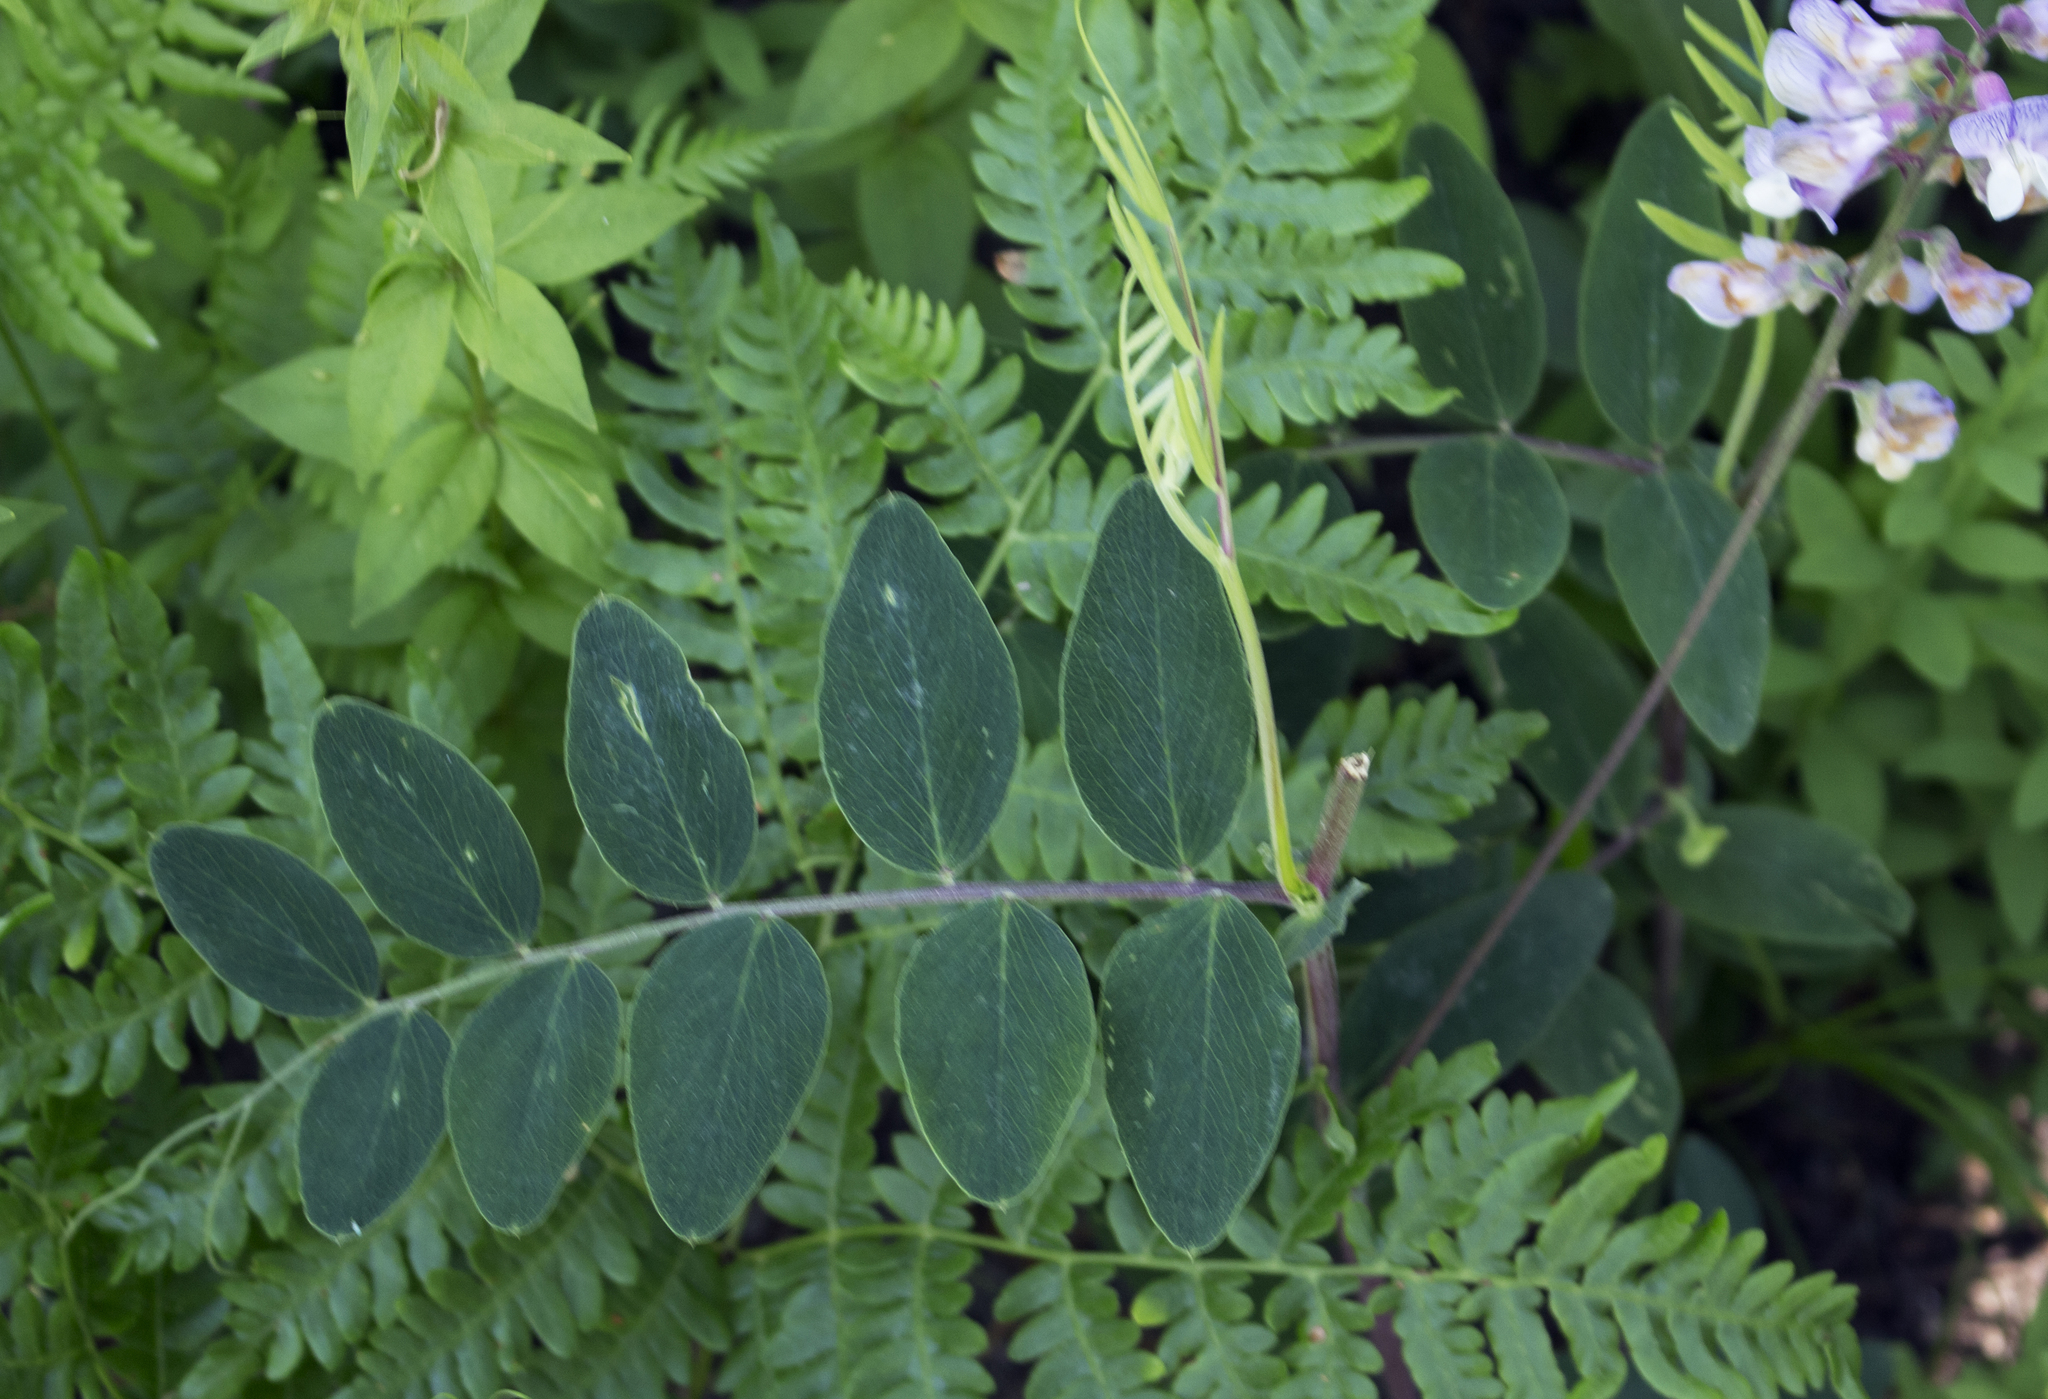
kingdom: Plantae
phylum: Tracheophyta
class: Magnoliopsida
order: Fabales
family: Fabaceae
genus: Lathyrus
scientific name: Lathyrus venosus
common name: Forest-pea
